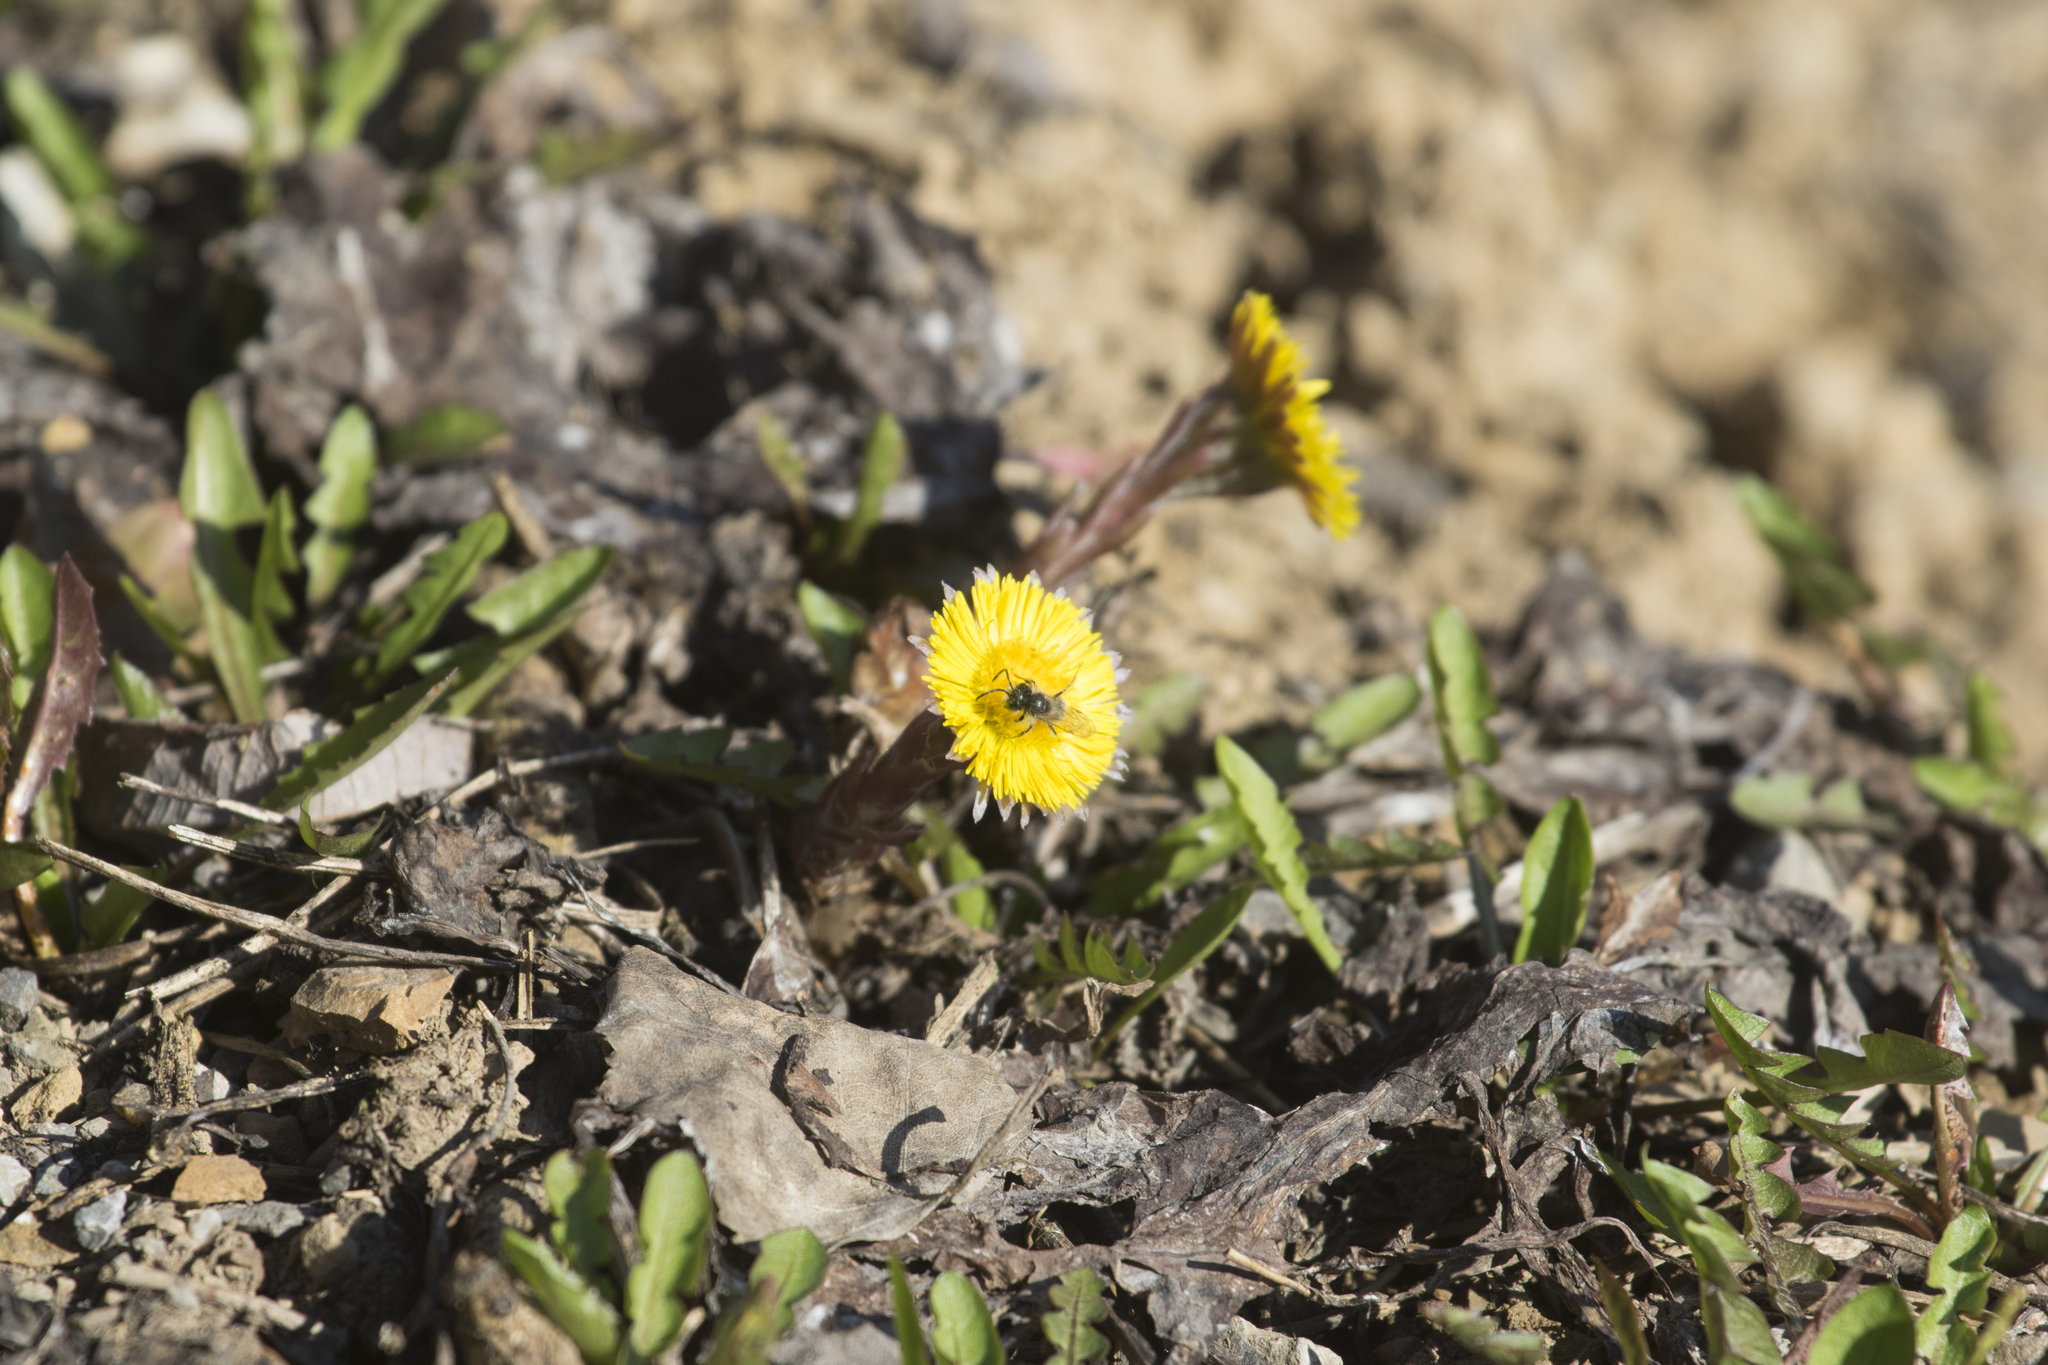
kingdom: Plantae
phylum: Tracheophyta
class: Magnoliopsida
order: Asterales
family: Asteraceae
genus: Tussilago
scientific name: Tussilago farfara
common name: Coltsfoot
